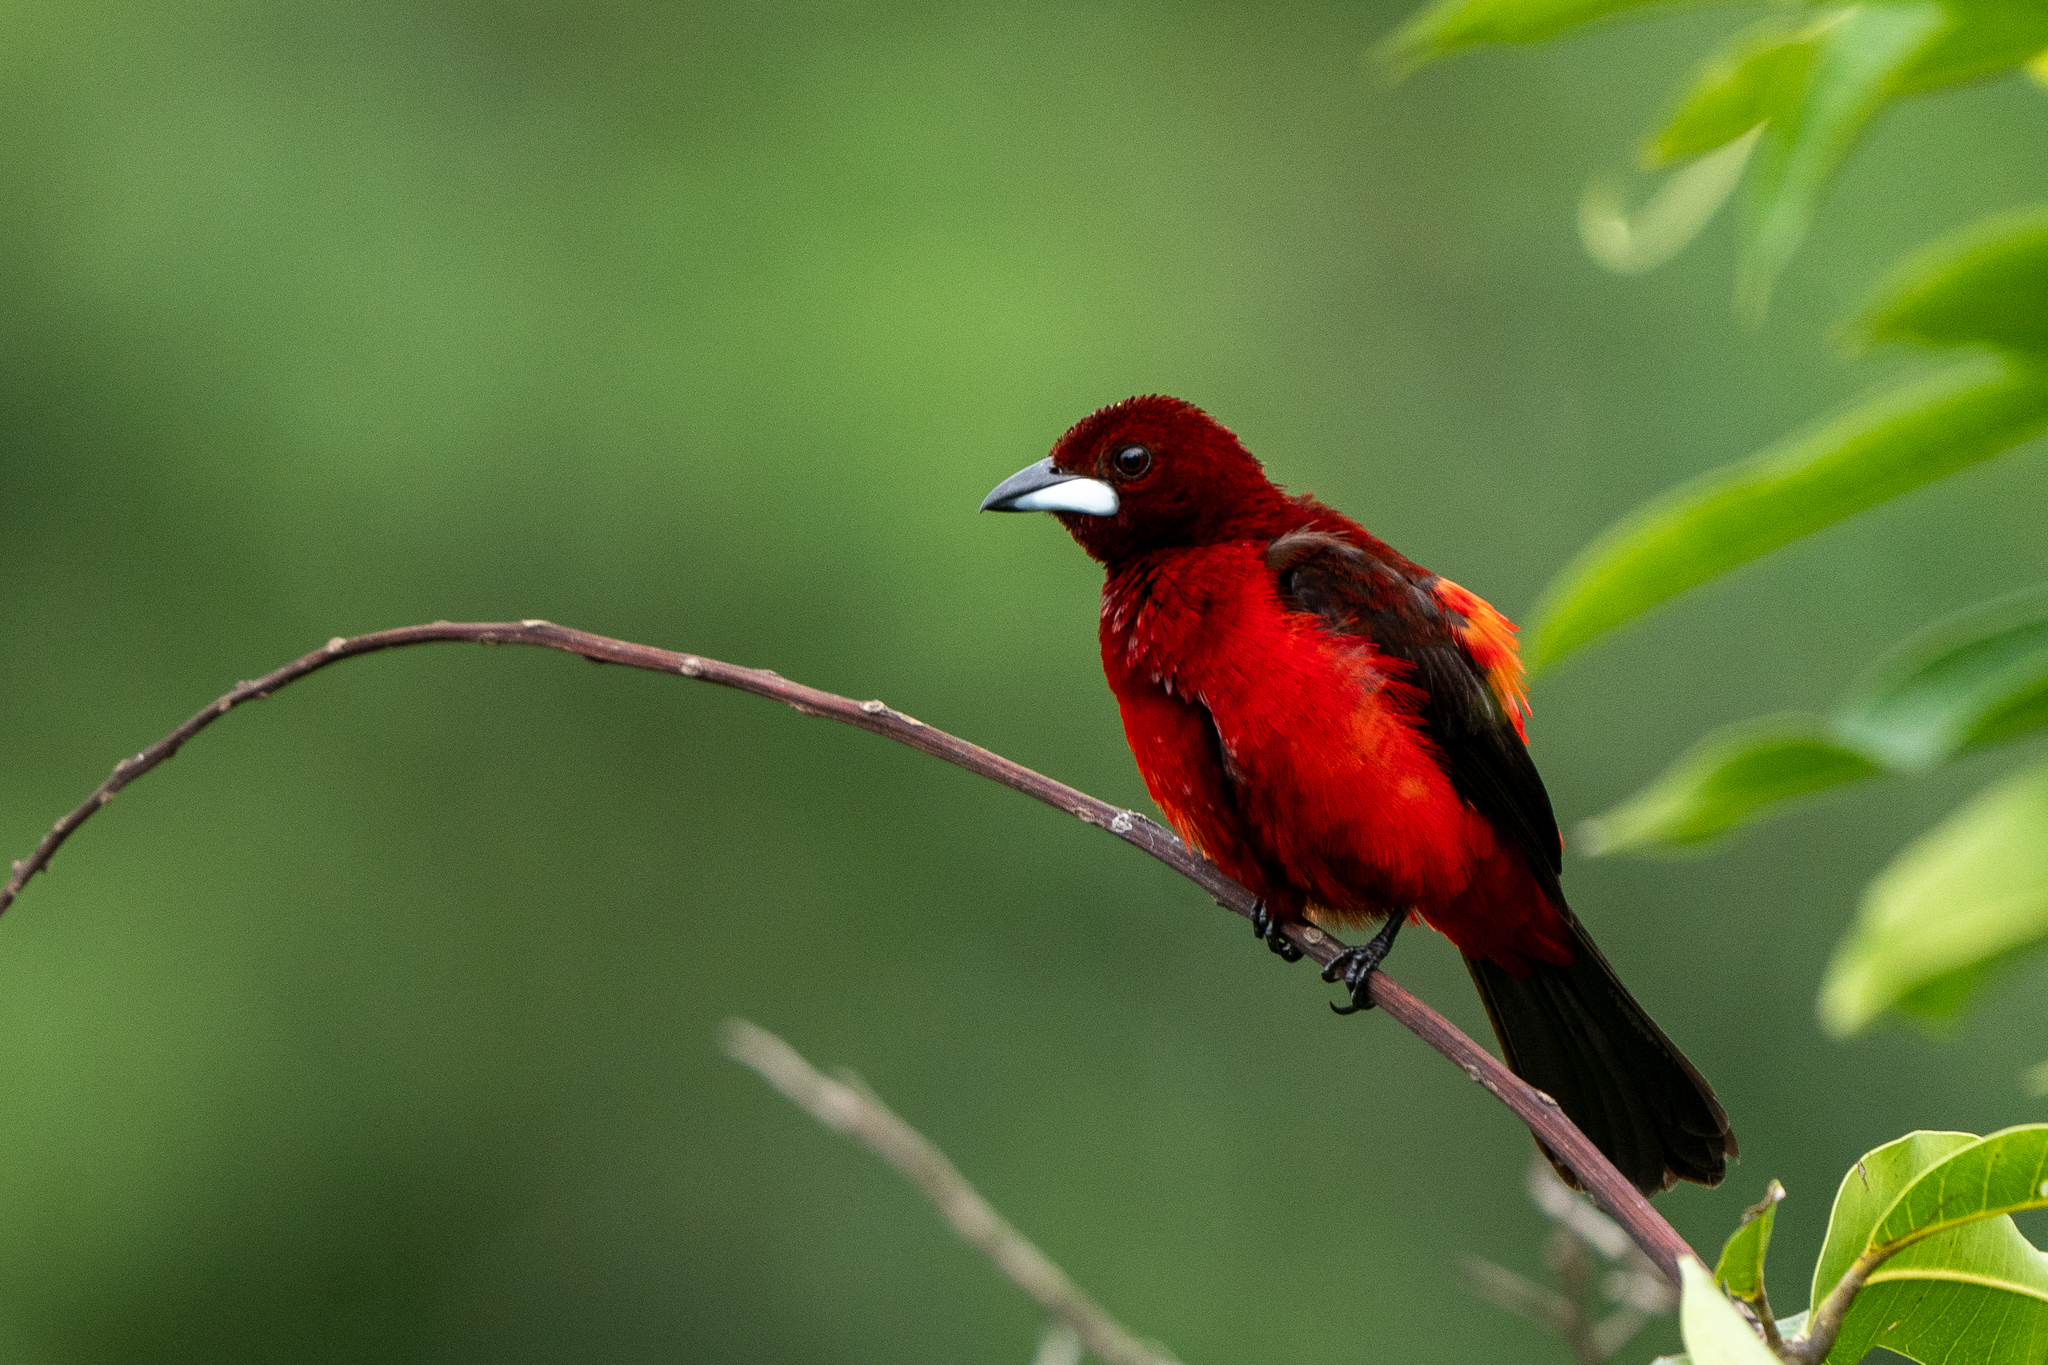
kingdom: Animalia
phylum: Chordata
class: Aves
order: Passeriformes
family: Thraupidae
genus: Ramphocelus
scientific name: Ramphocelus dimidiatus
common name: Crimson-backed tanager
